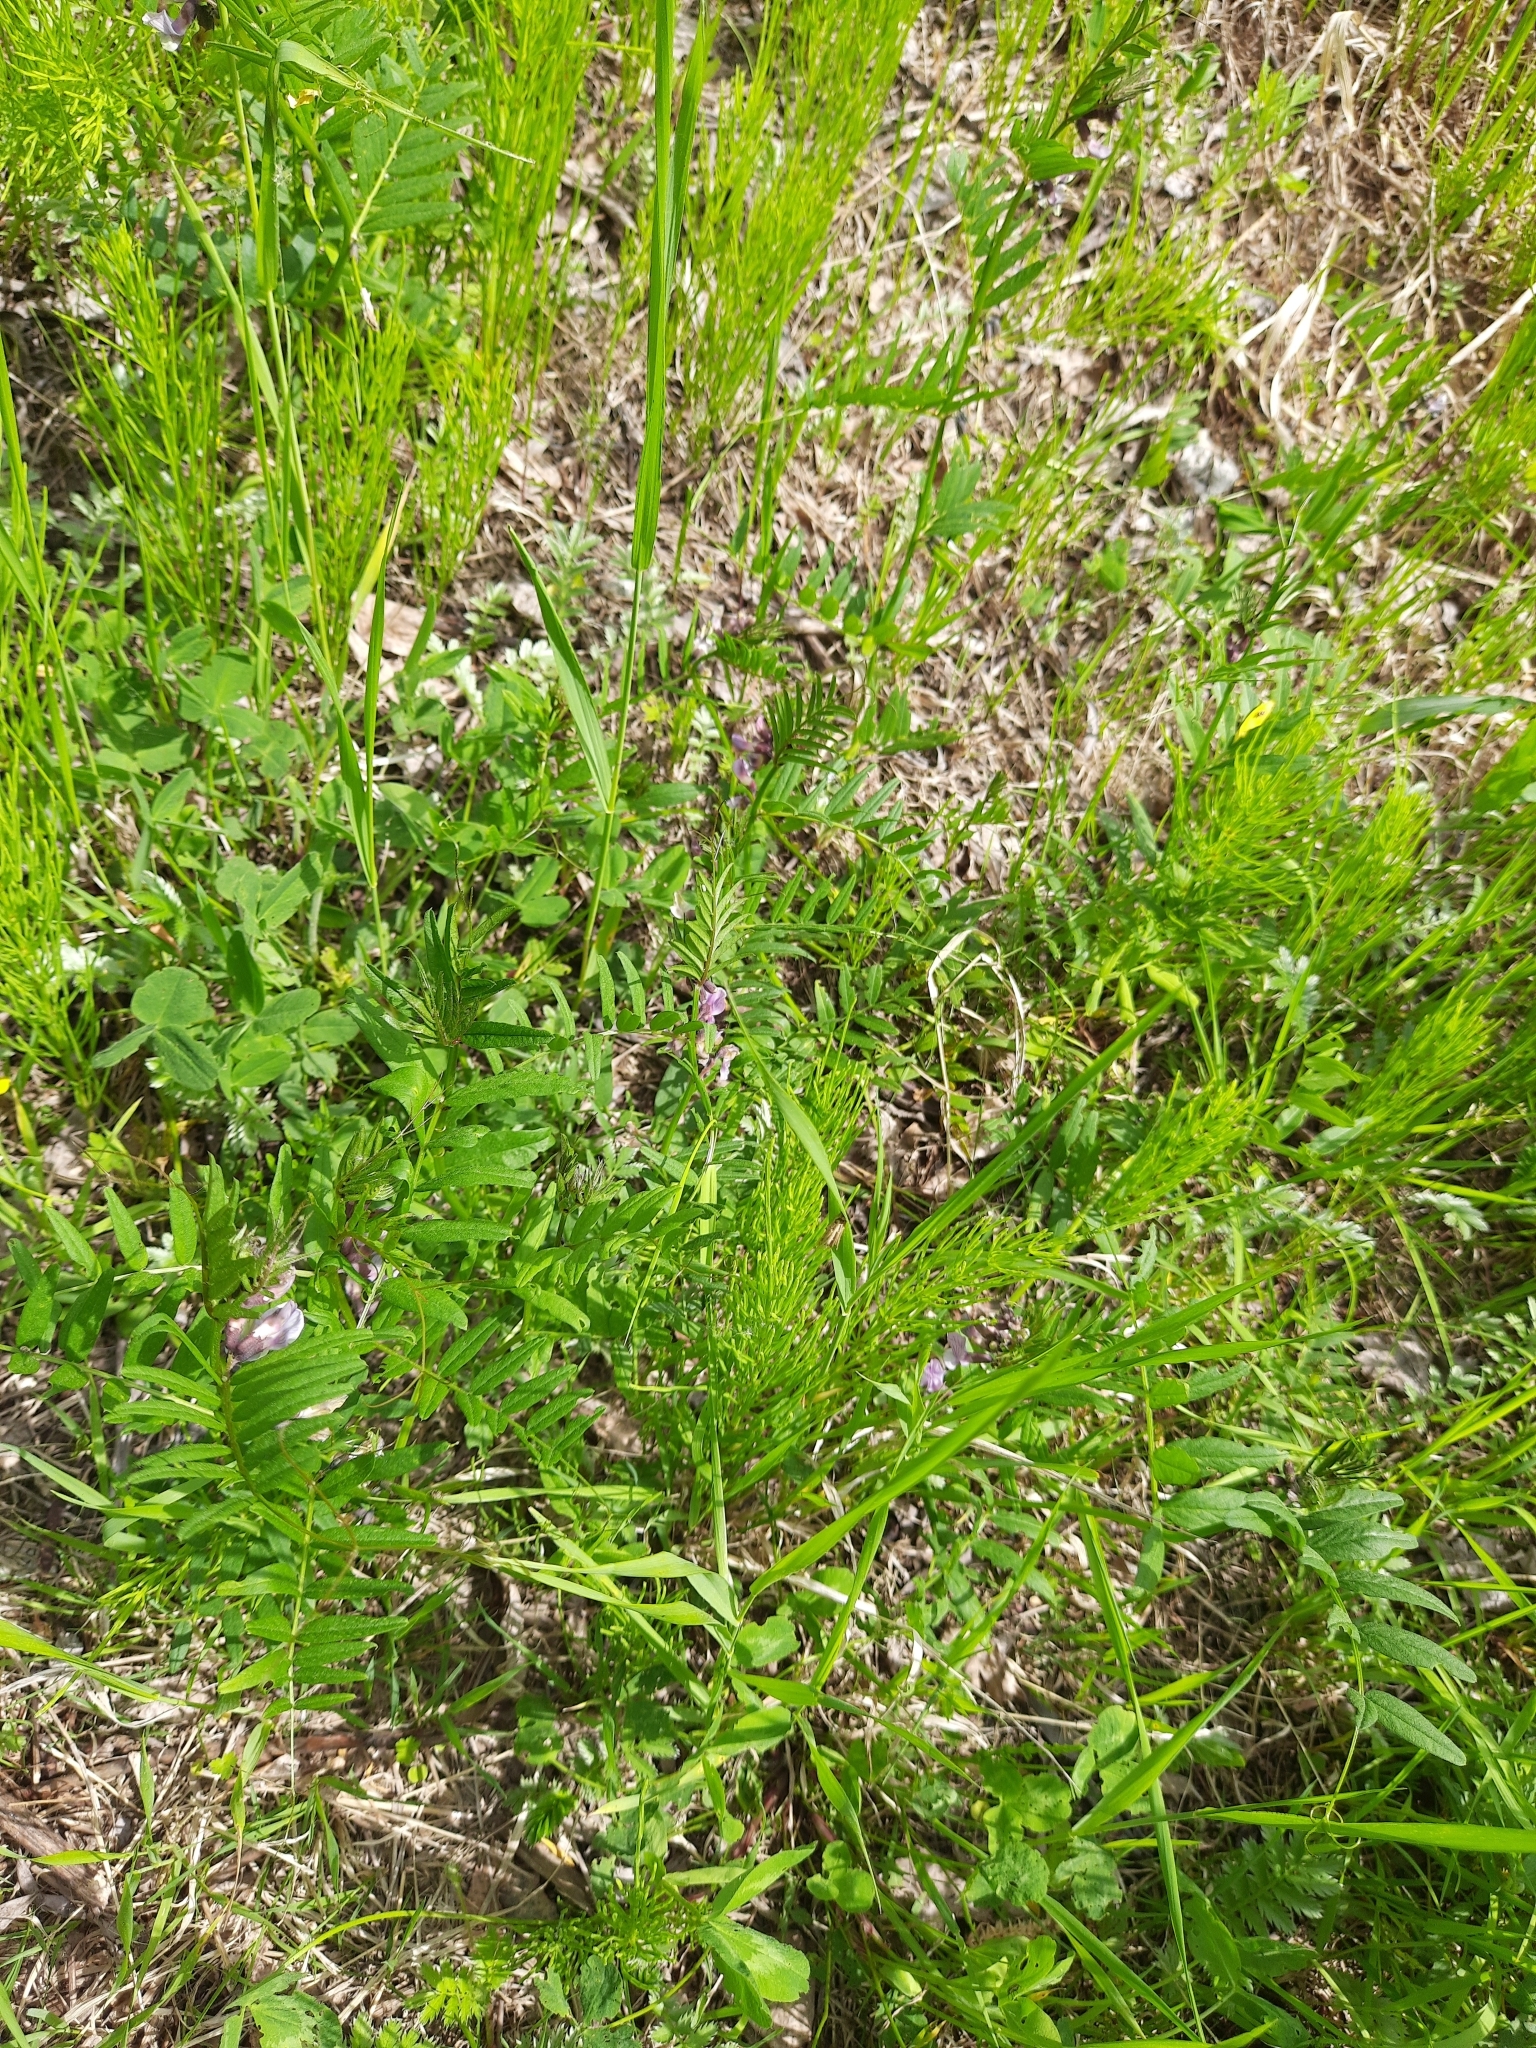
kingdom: Plantae
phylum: Tracheophyta
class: Magnoliopsida
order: Fabales
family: Fabaceae
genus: Vicia
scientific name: Vicia sepium
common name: Bush vetch
